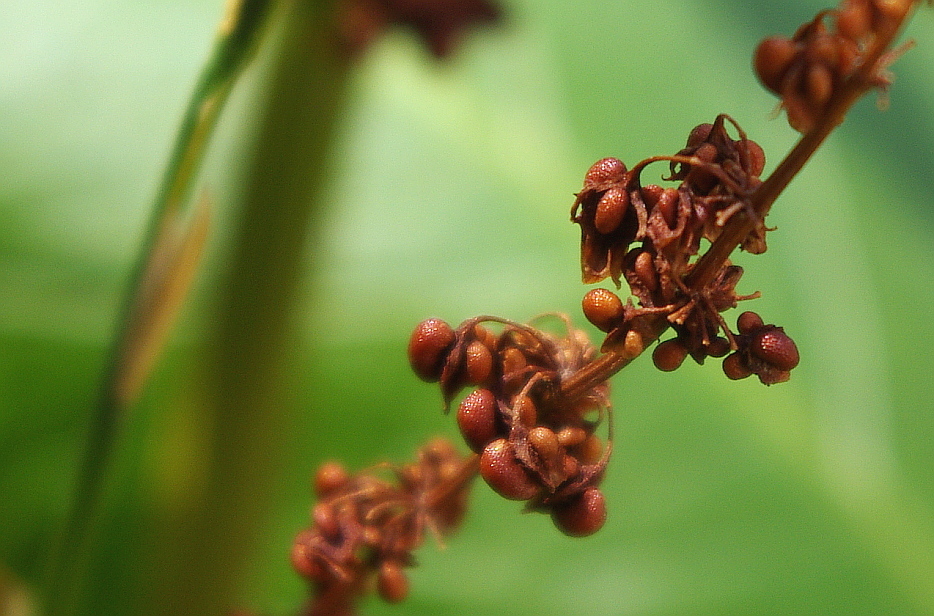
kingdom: Plantae
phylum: Tracheophyta
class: Magnoliopsida
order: Caryophyllales
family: Polygonaceae
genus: Rumex
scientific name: Rumex obtusifolius
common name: Bitter dock
